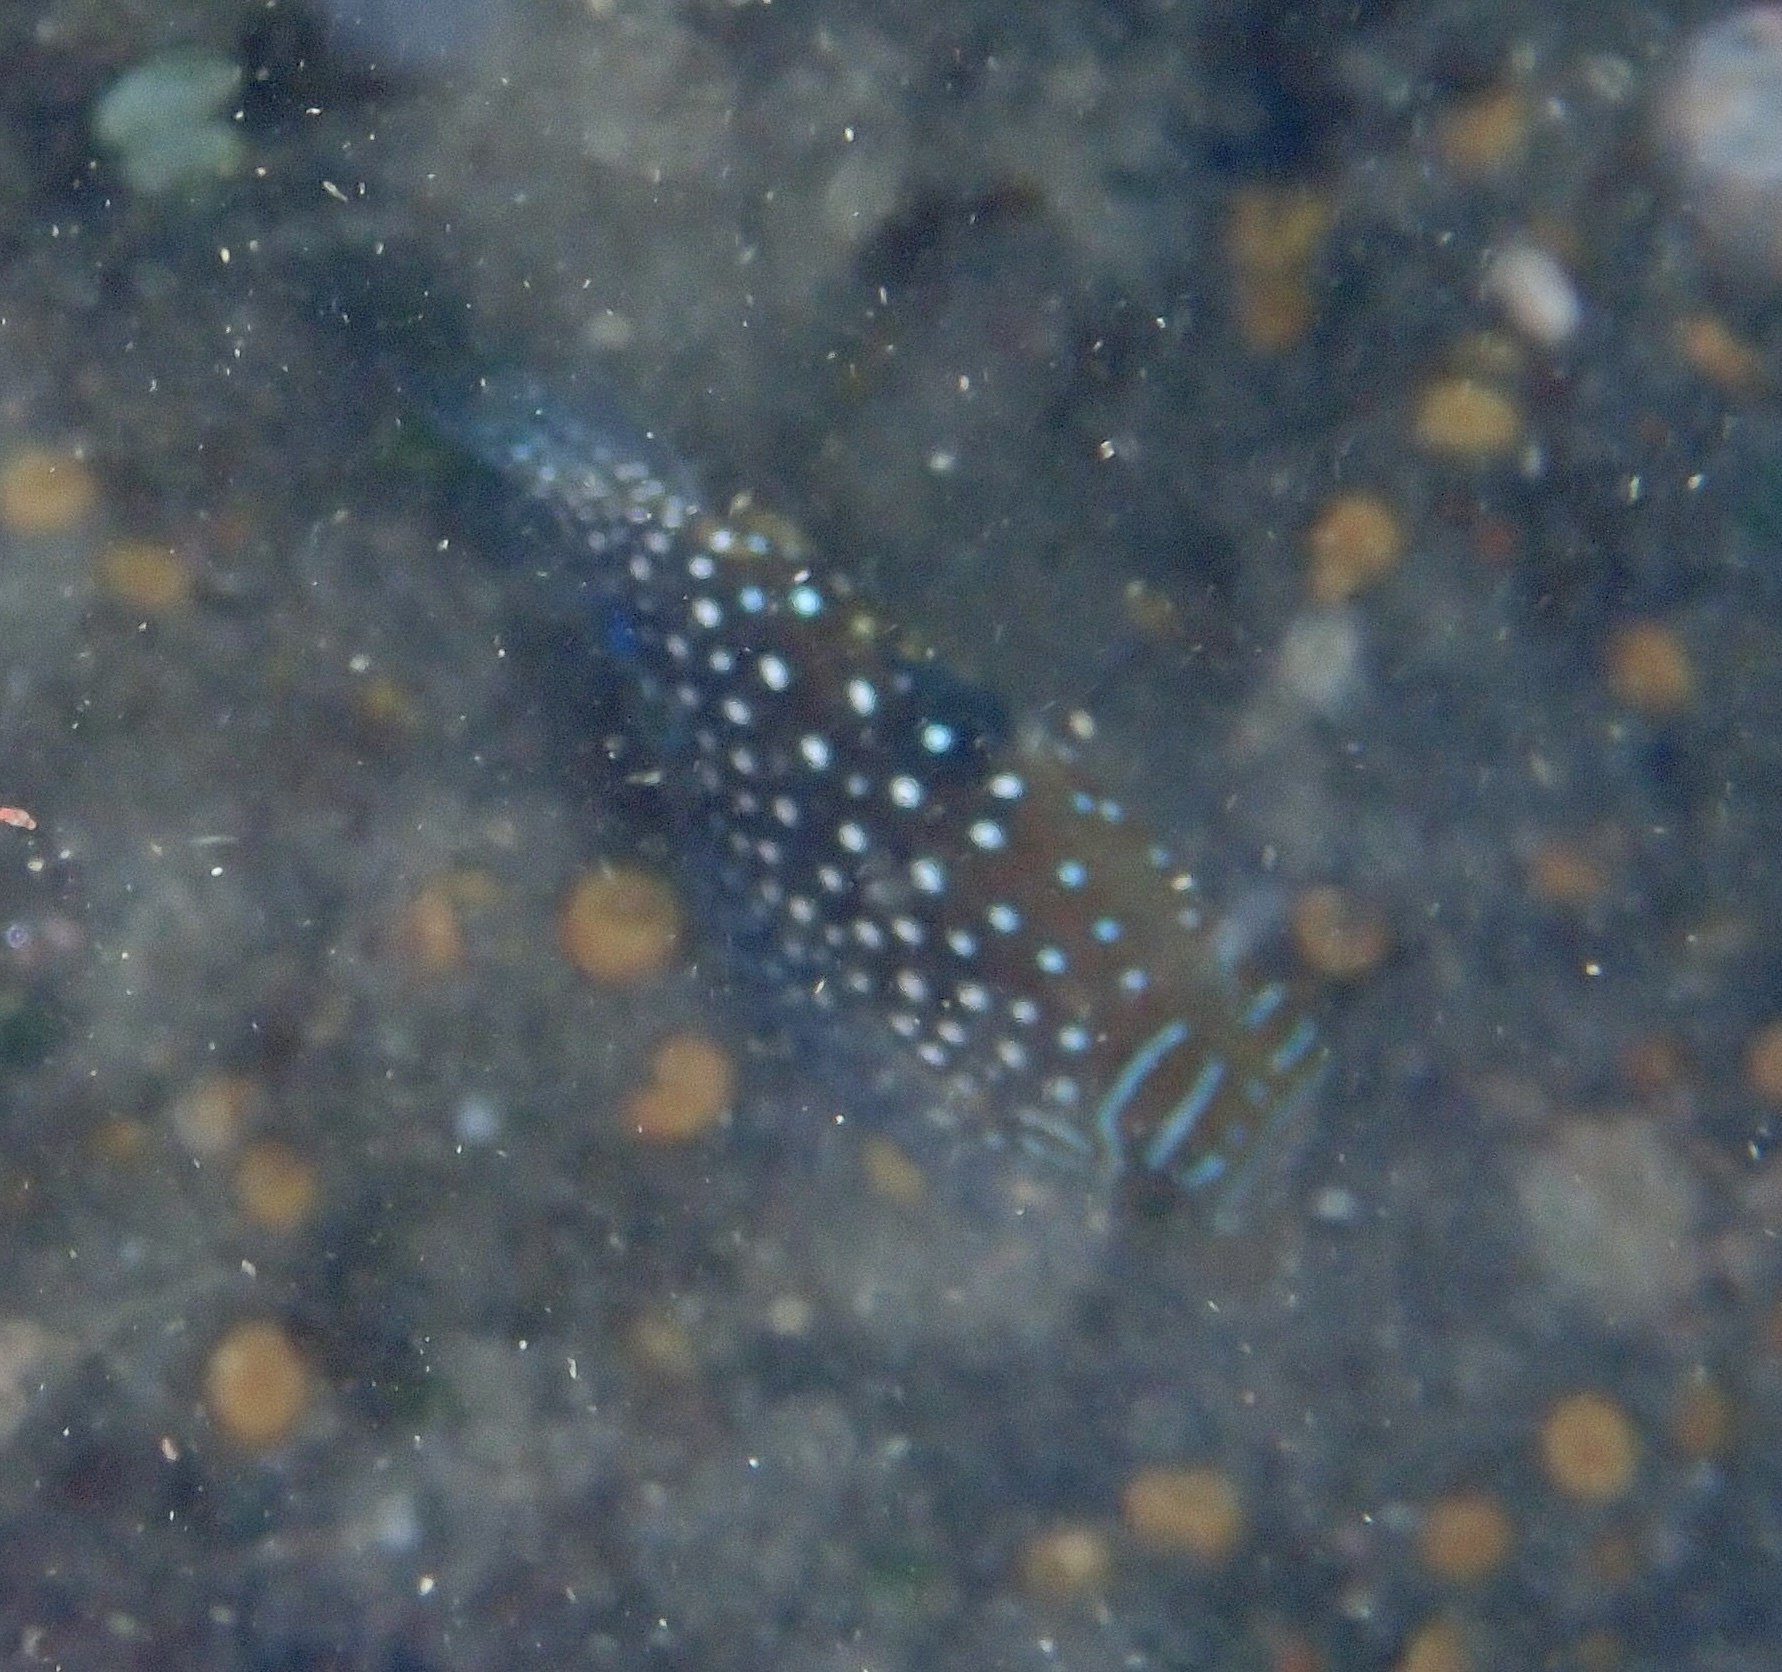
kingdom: Animalia
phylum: Chordata
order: Tetraodontiformes
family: Tetraodontidae
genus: Canthigaster
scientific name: Canthigaster amboinensis
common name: Ambon pufferfish
